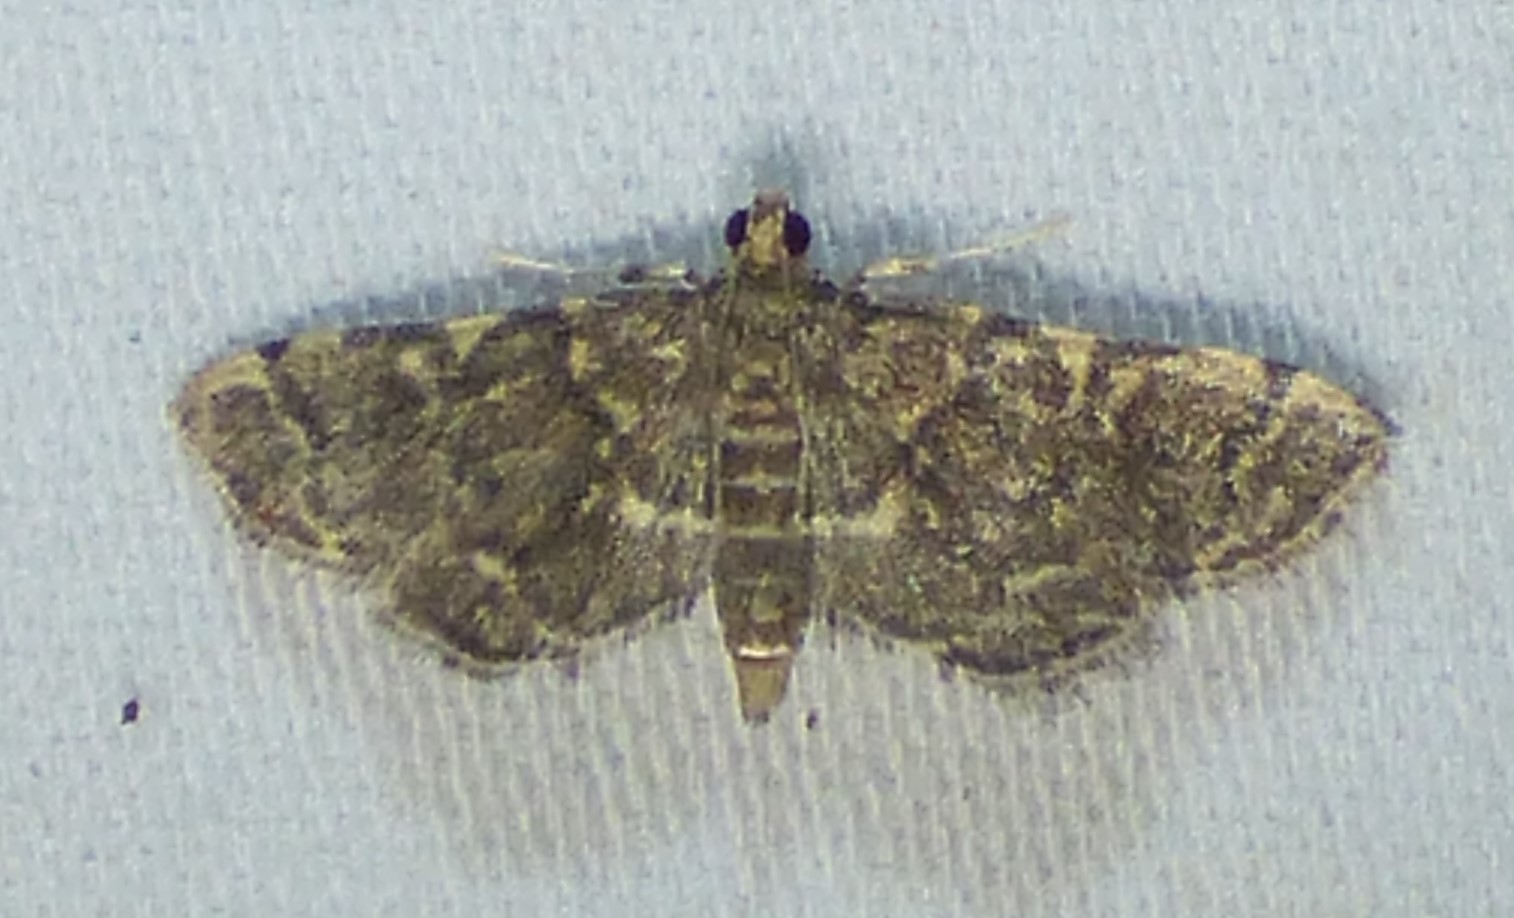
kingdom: Animalia
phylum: Arthropoda
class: Insecta
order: Lepidoptera
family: Crambidae
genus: Anageshna
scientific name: Anageshna primordialis
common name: Yellow-spotted webworm moth
